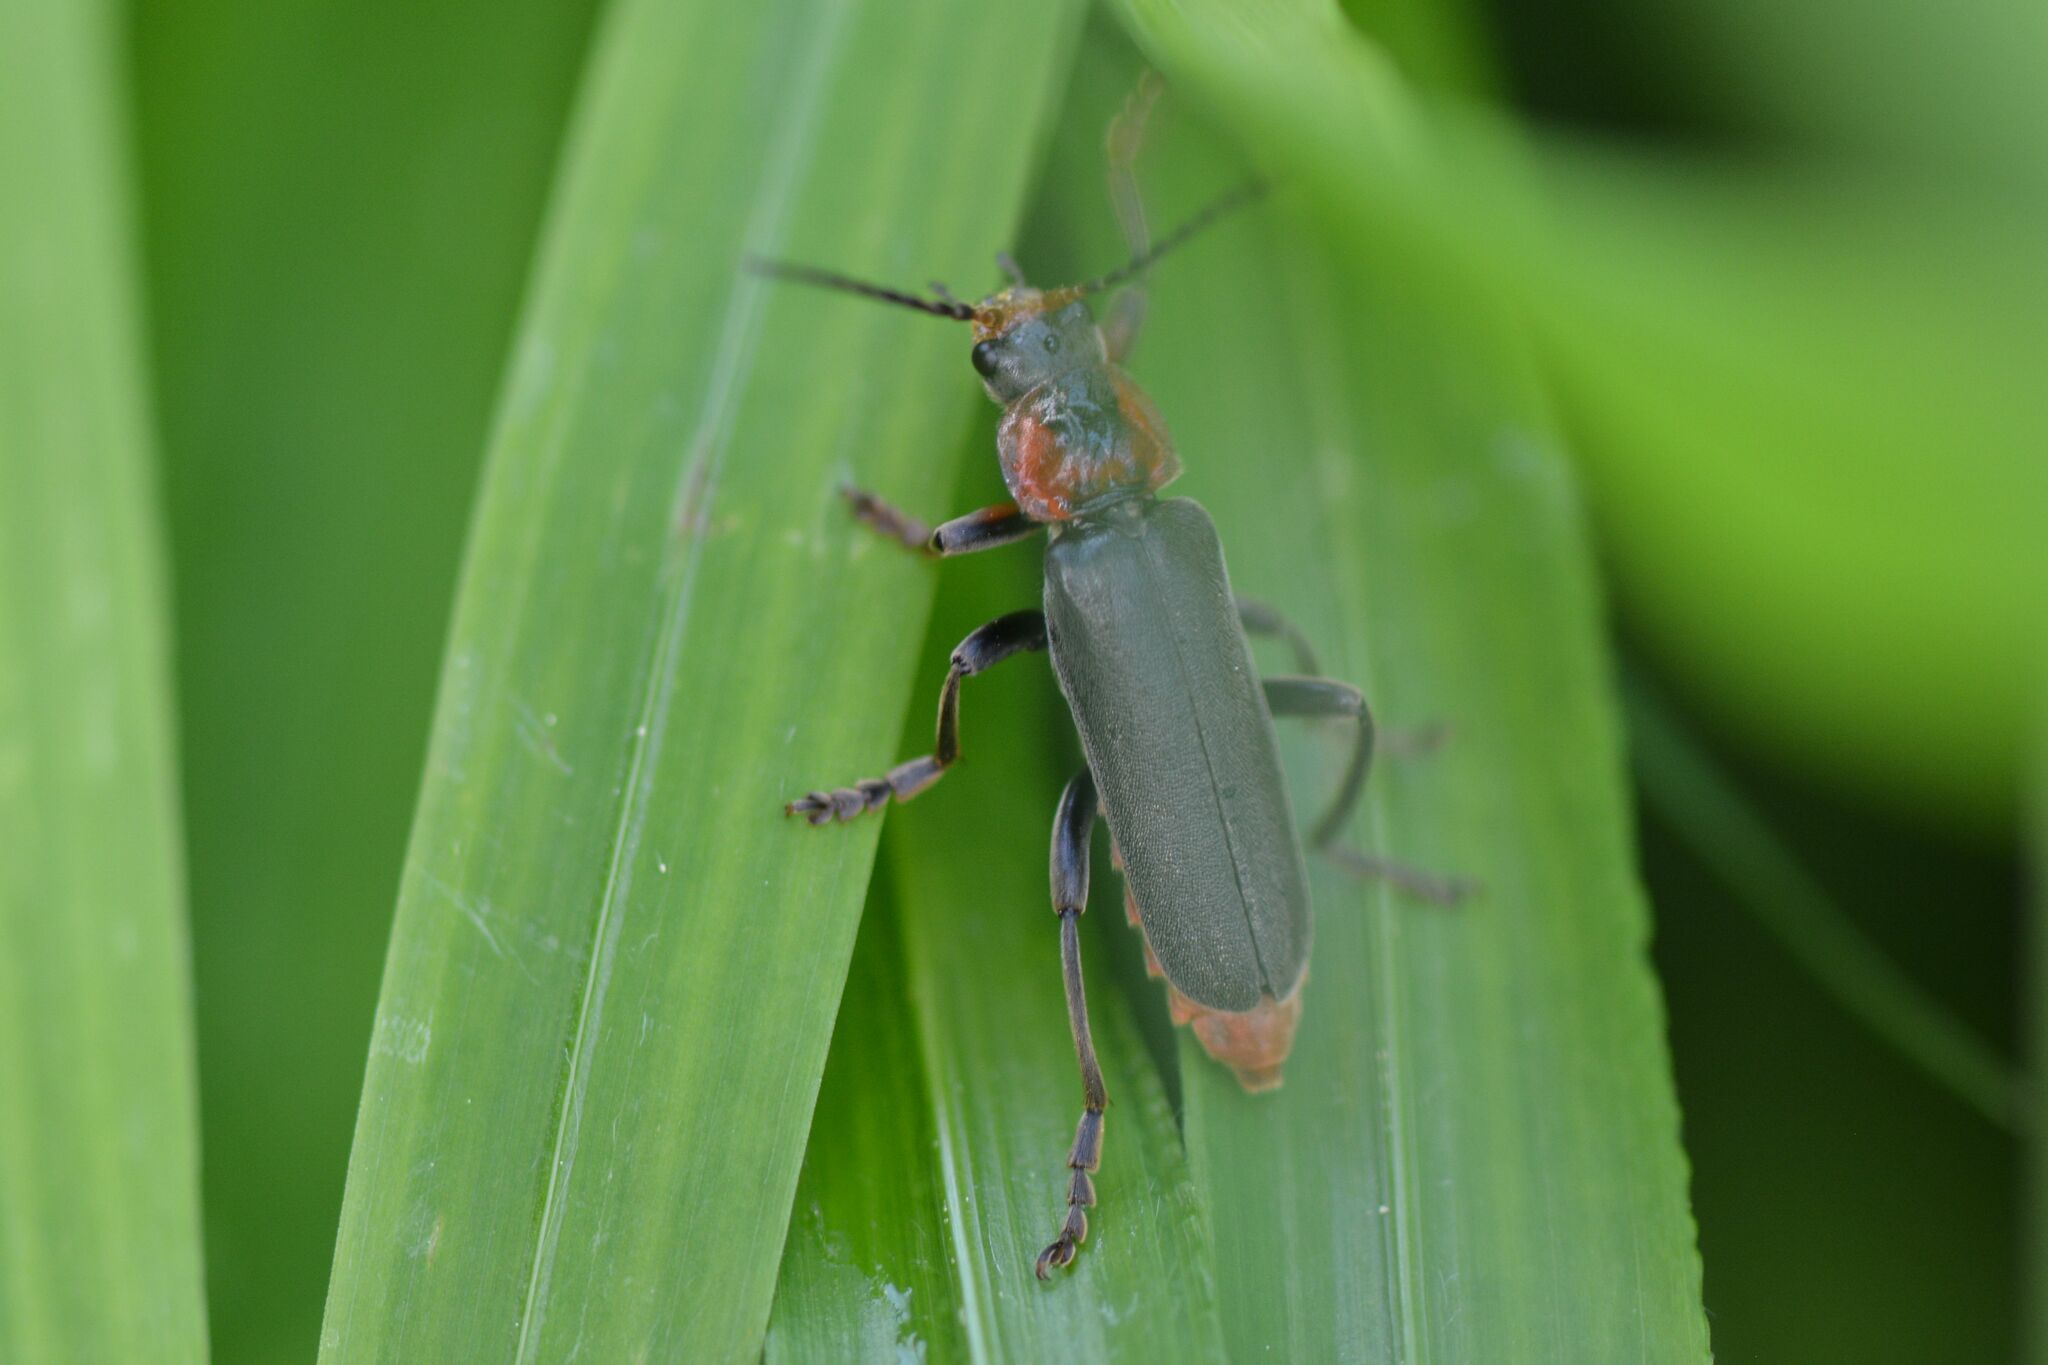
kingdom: Animalia
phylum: Arthropoda
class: Insecta
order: Coleoptera
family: Cantharidae
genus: Cantharis
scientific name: Cantharis fusca
